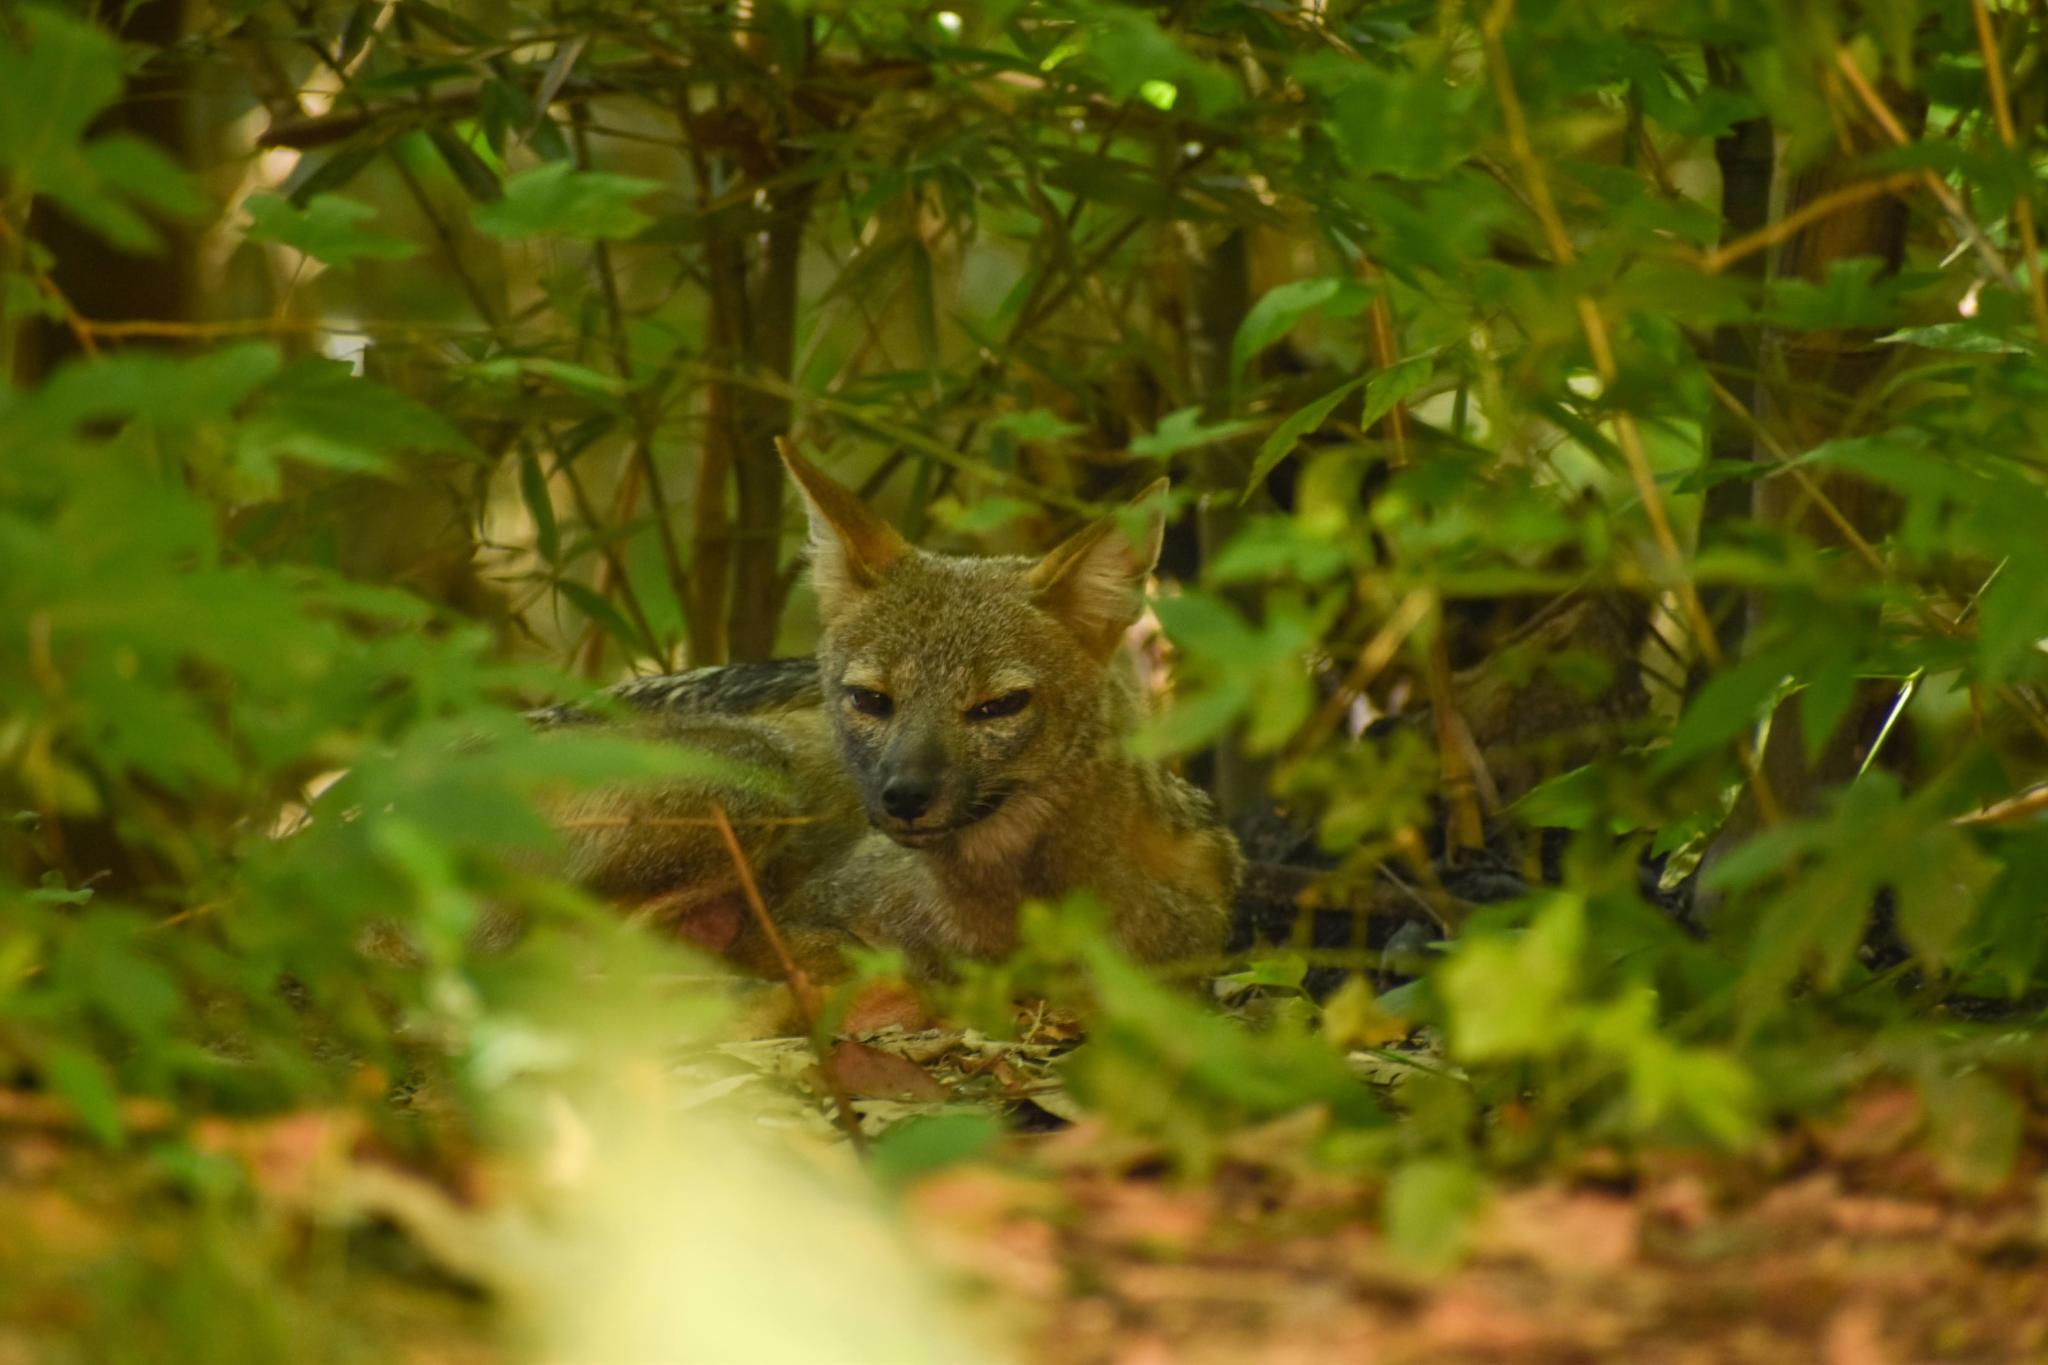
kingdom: Animalia
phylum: Chordata
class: Mammalia
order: Carnivora
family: Canidae
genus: Lycalopex
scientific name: Lycalopex gymnocercus
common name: Pampas fox
